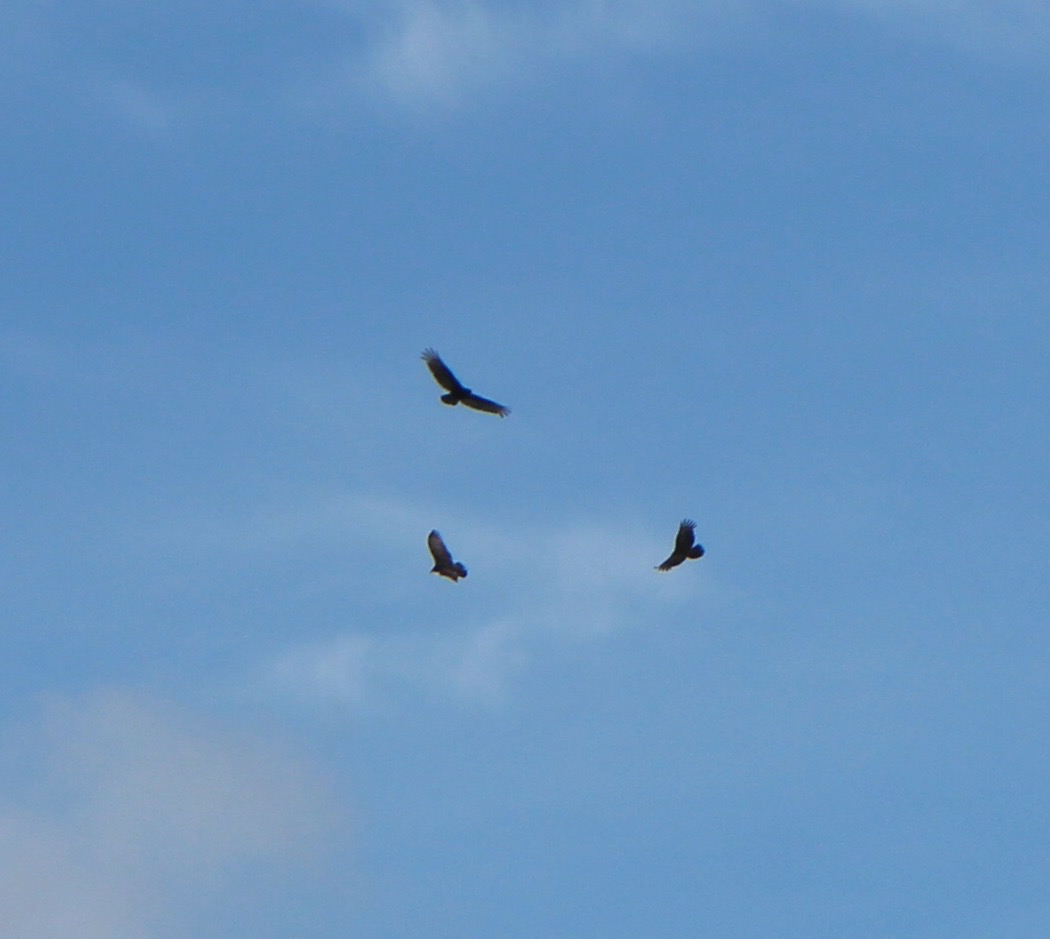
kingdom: Animalia
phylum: Chordata
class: Aves
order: Accipitriformes
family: Cathartidae
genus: Cathartes
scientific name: Cathartes aura
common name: Turkey vulture
